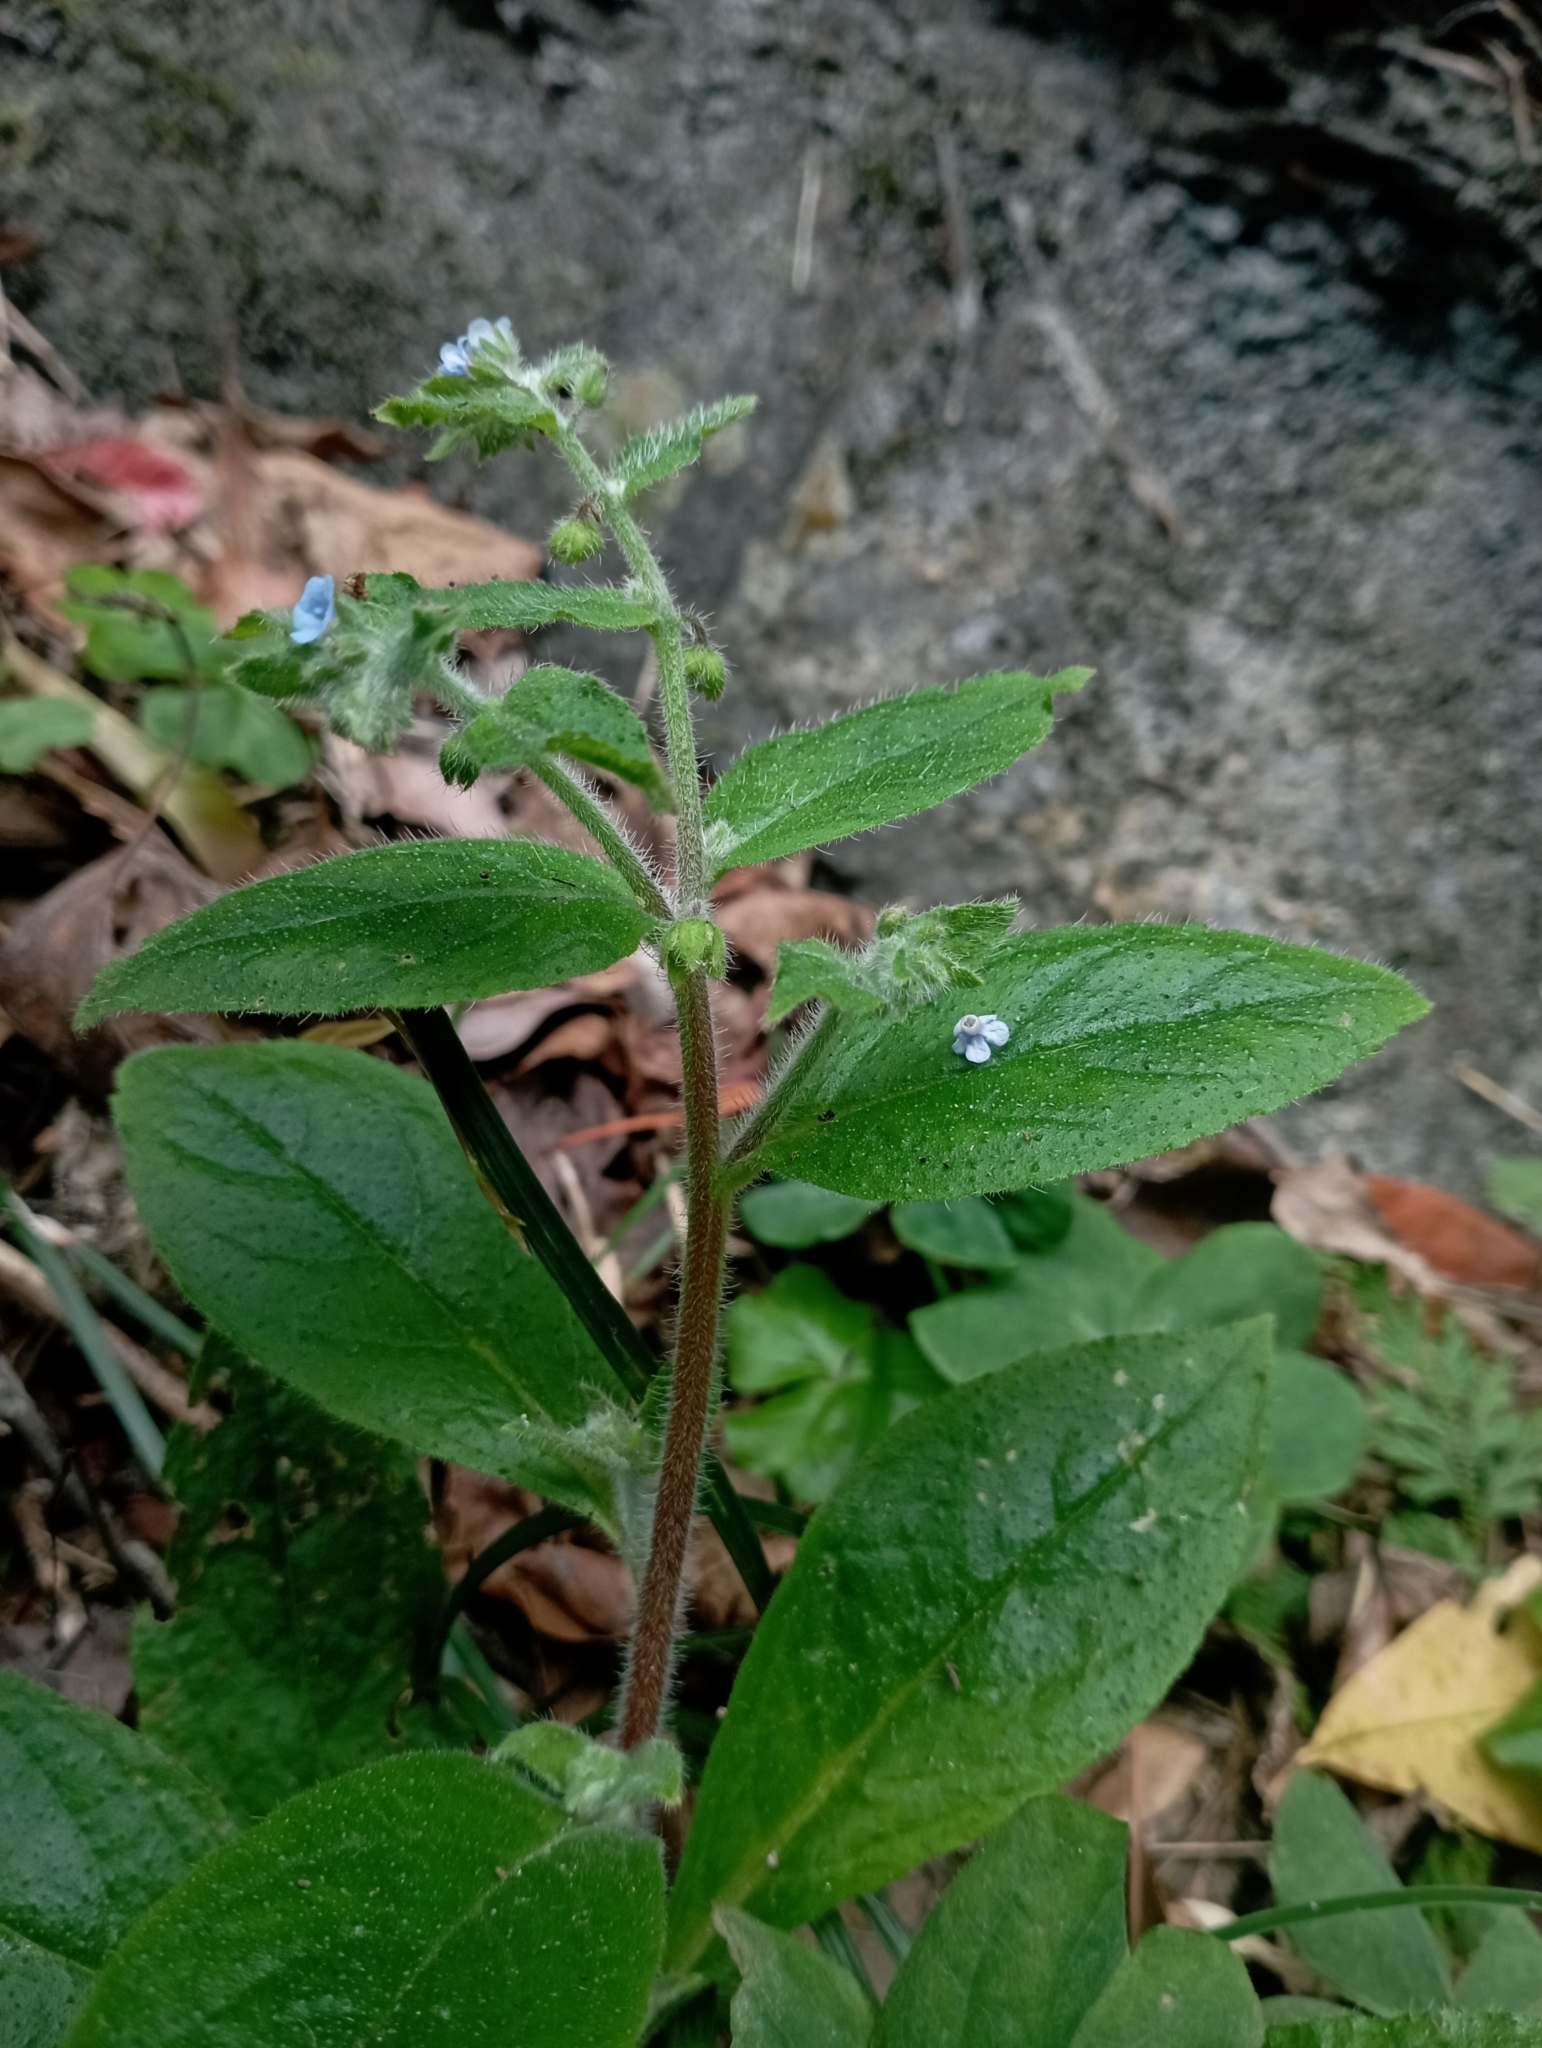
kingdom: Plantae
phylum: Tracheophyta
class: Magnoliopsida
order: Boraginales
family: Boraginaceae
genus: Thyrocarpus
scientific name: Thyrocarpus sampsonii
